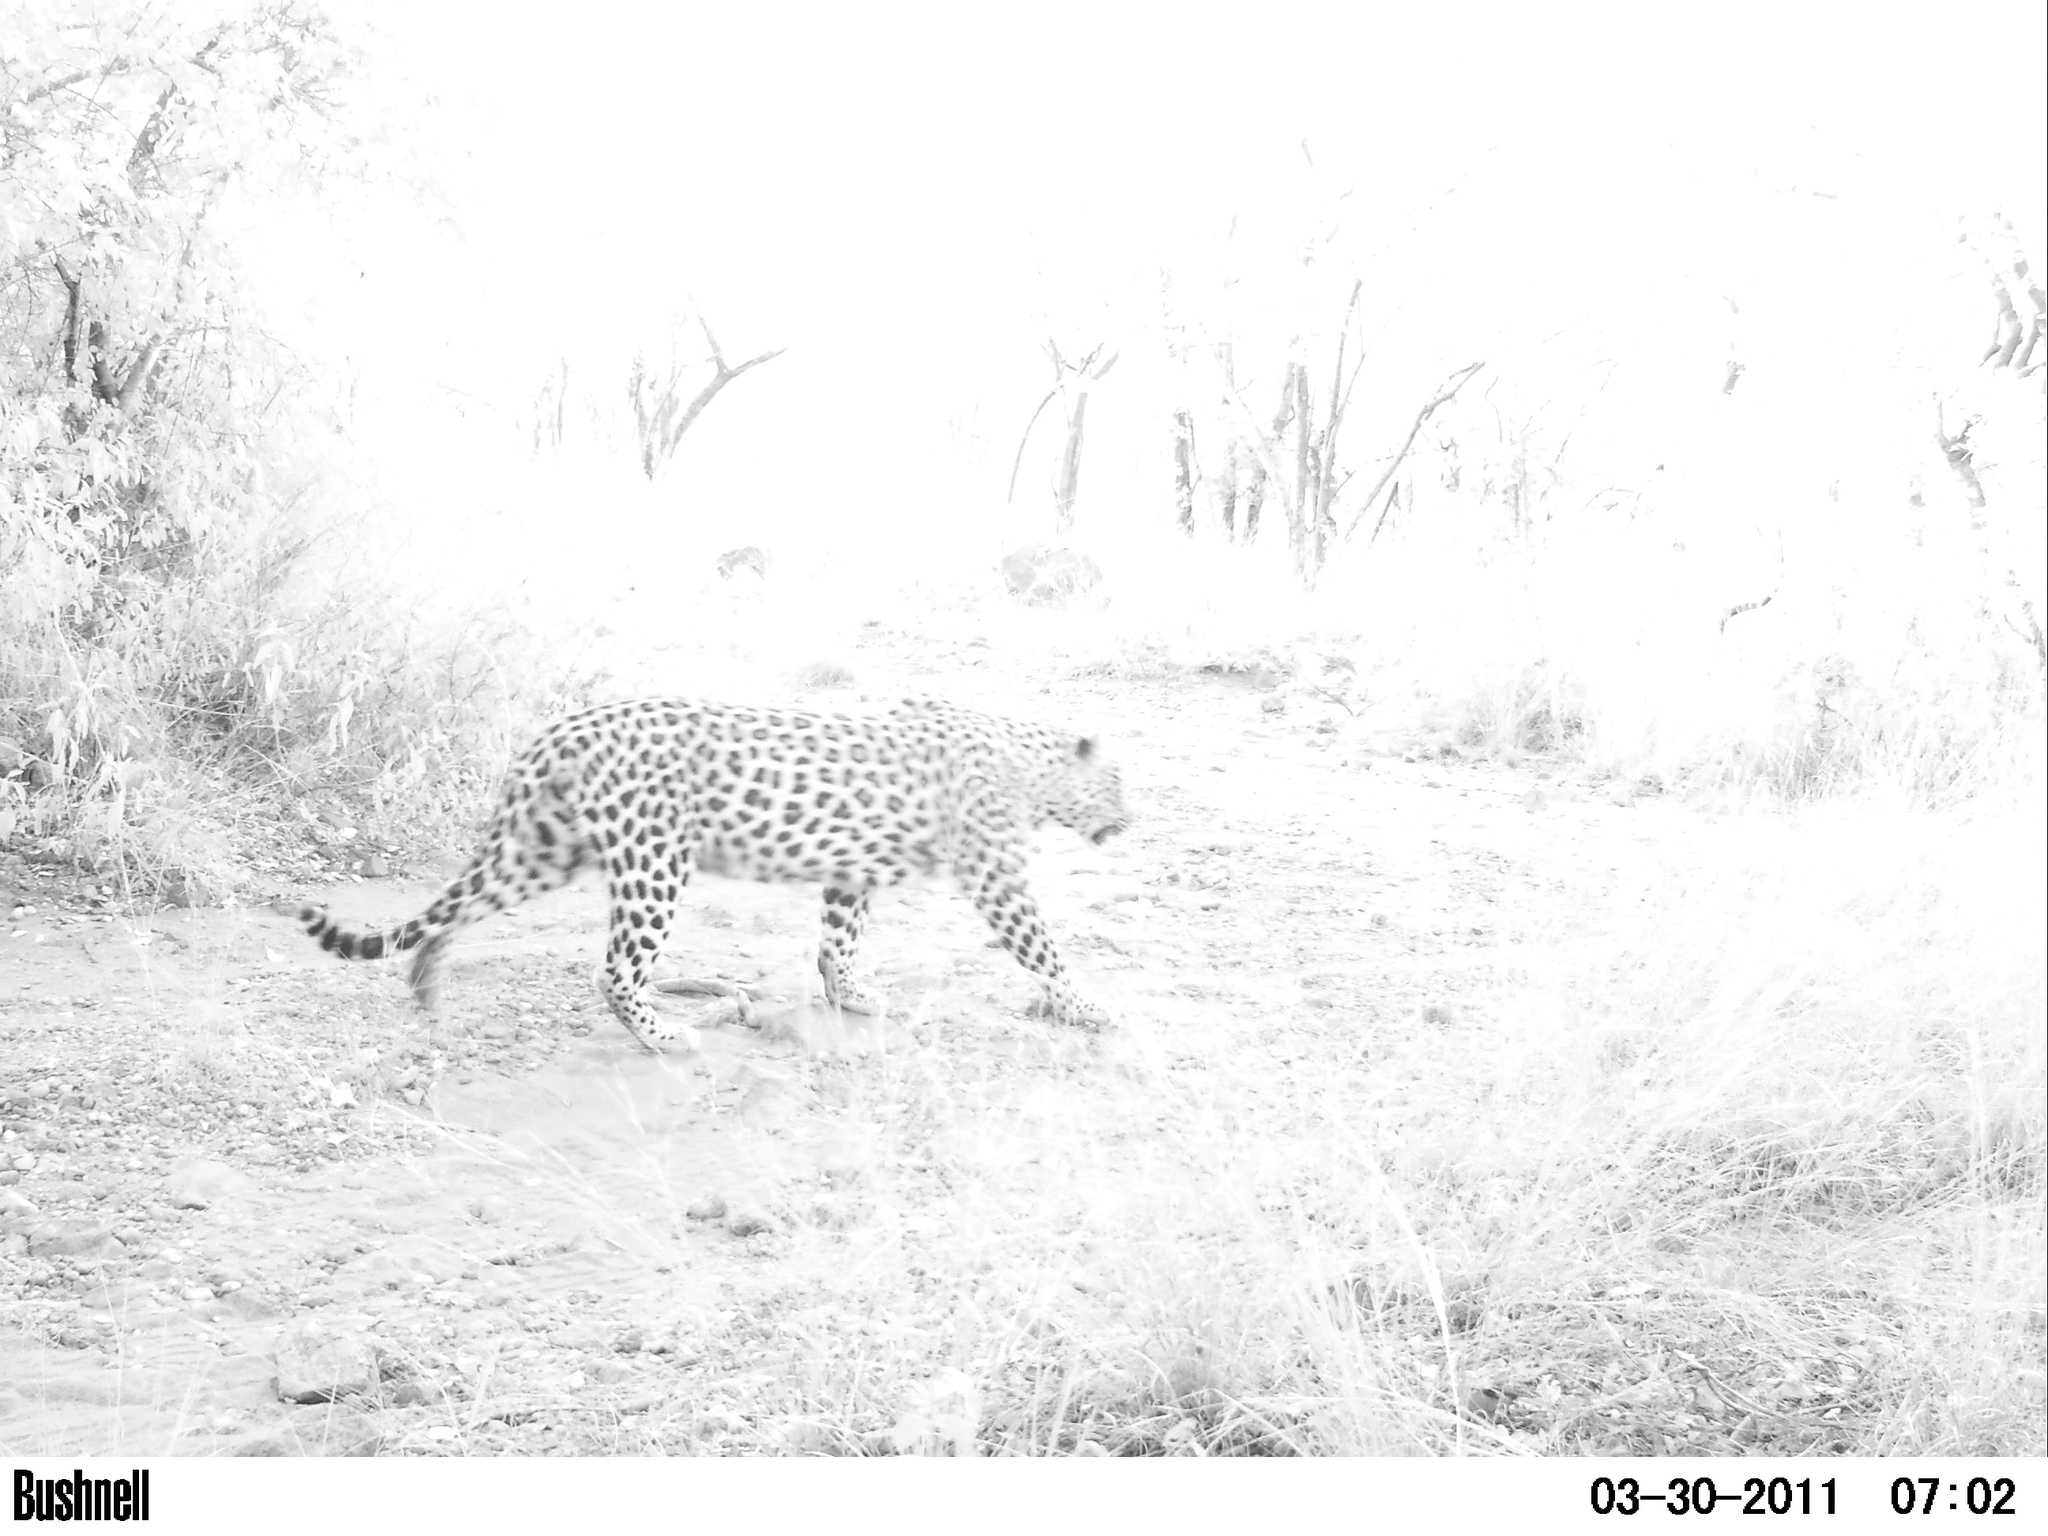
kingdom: Animalia
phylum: Chordata
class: Mammalia
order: Carnivora
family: Felidae
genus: Panthera
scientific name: Panthera pardus
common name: Leopard
